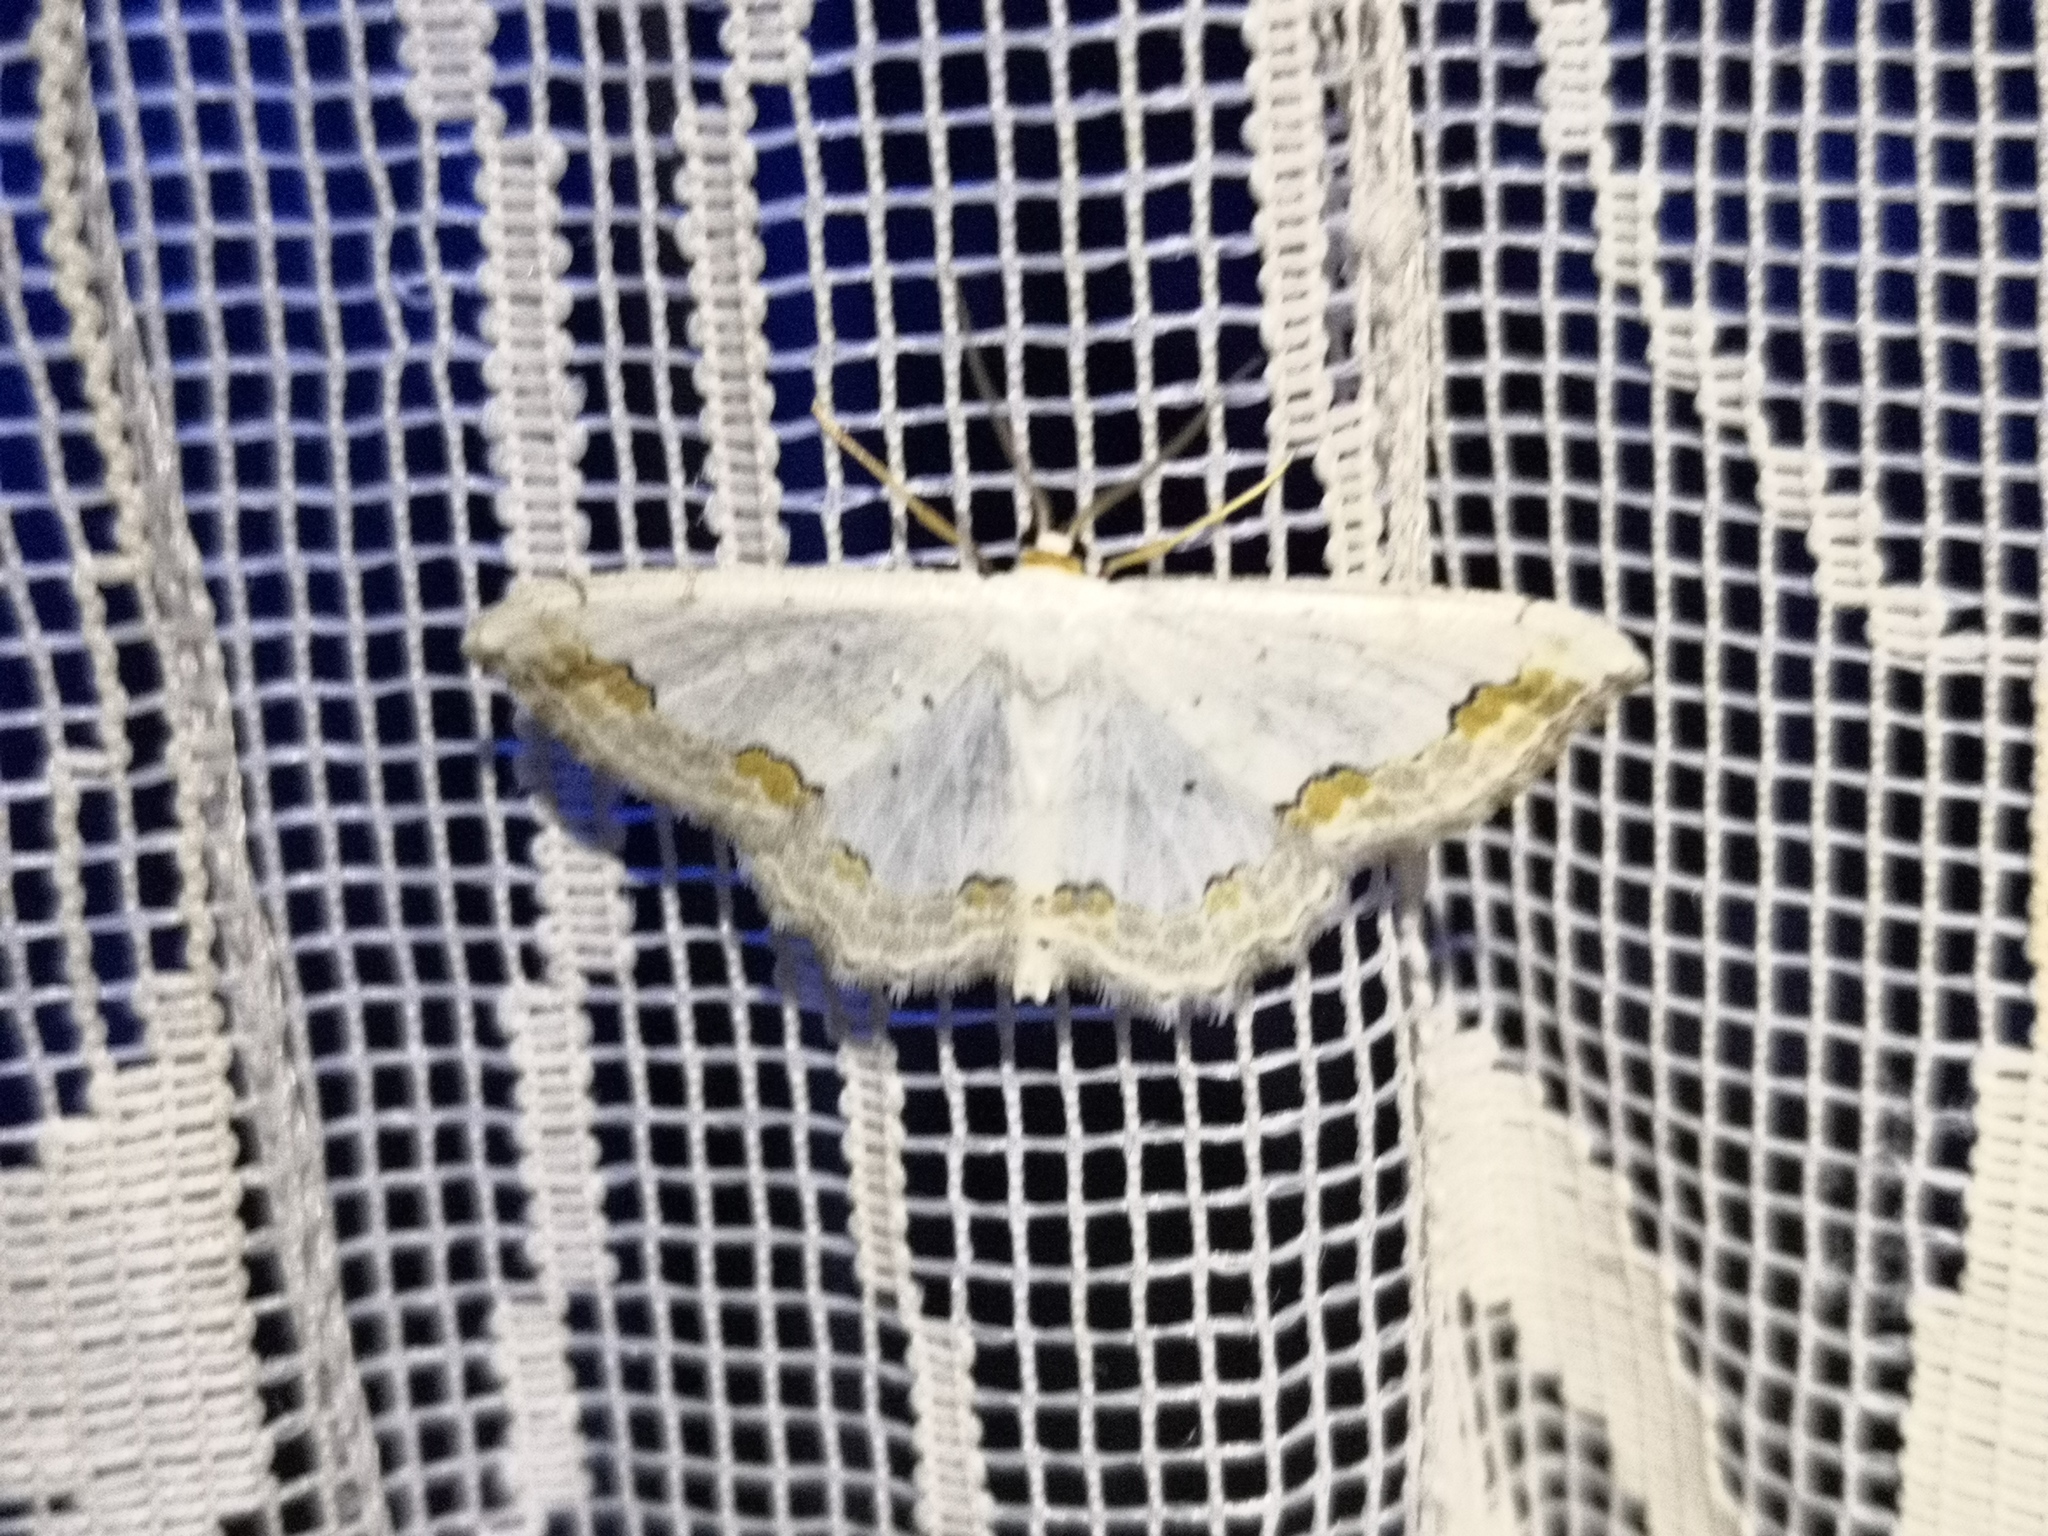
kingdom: Animalia
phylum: Arthropoda
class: Insecta
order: Lepidoptera
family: Geometridae
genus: Scopula
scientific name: Scopula ornata
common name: Lace border
